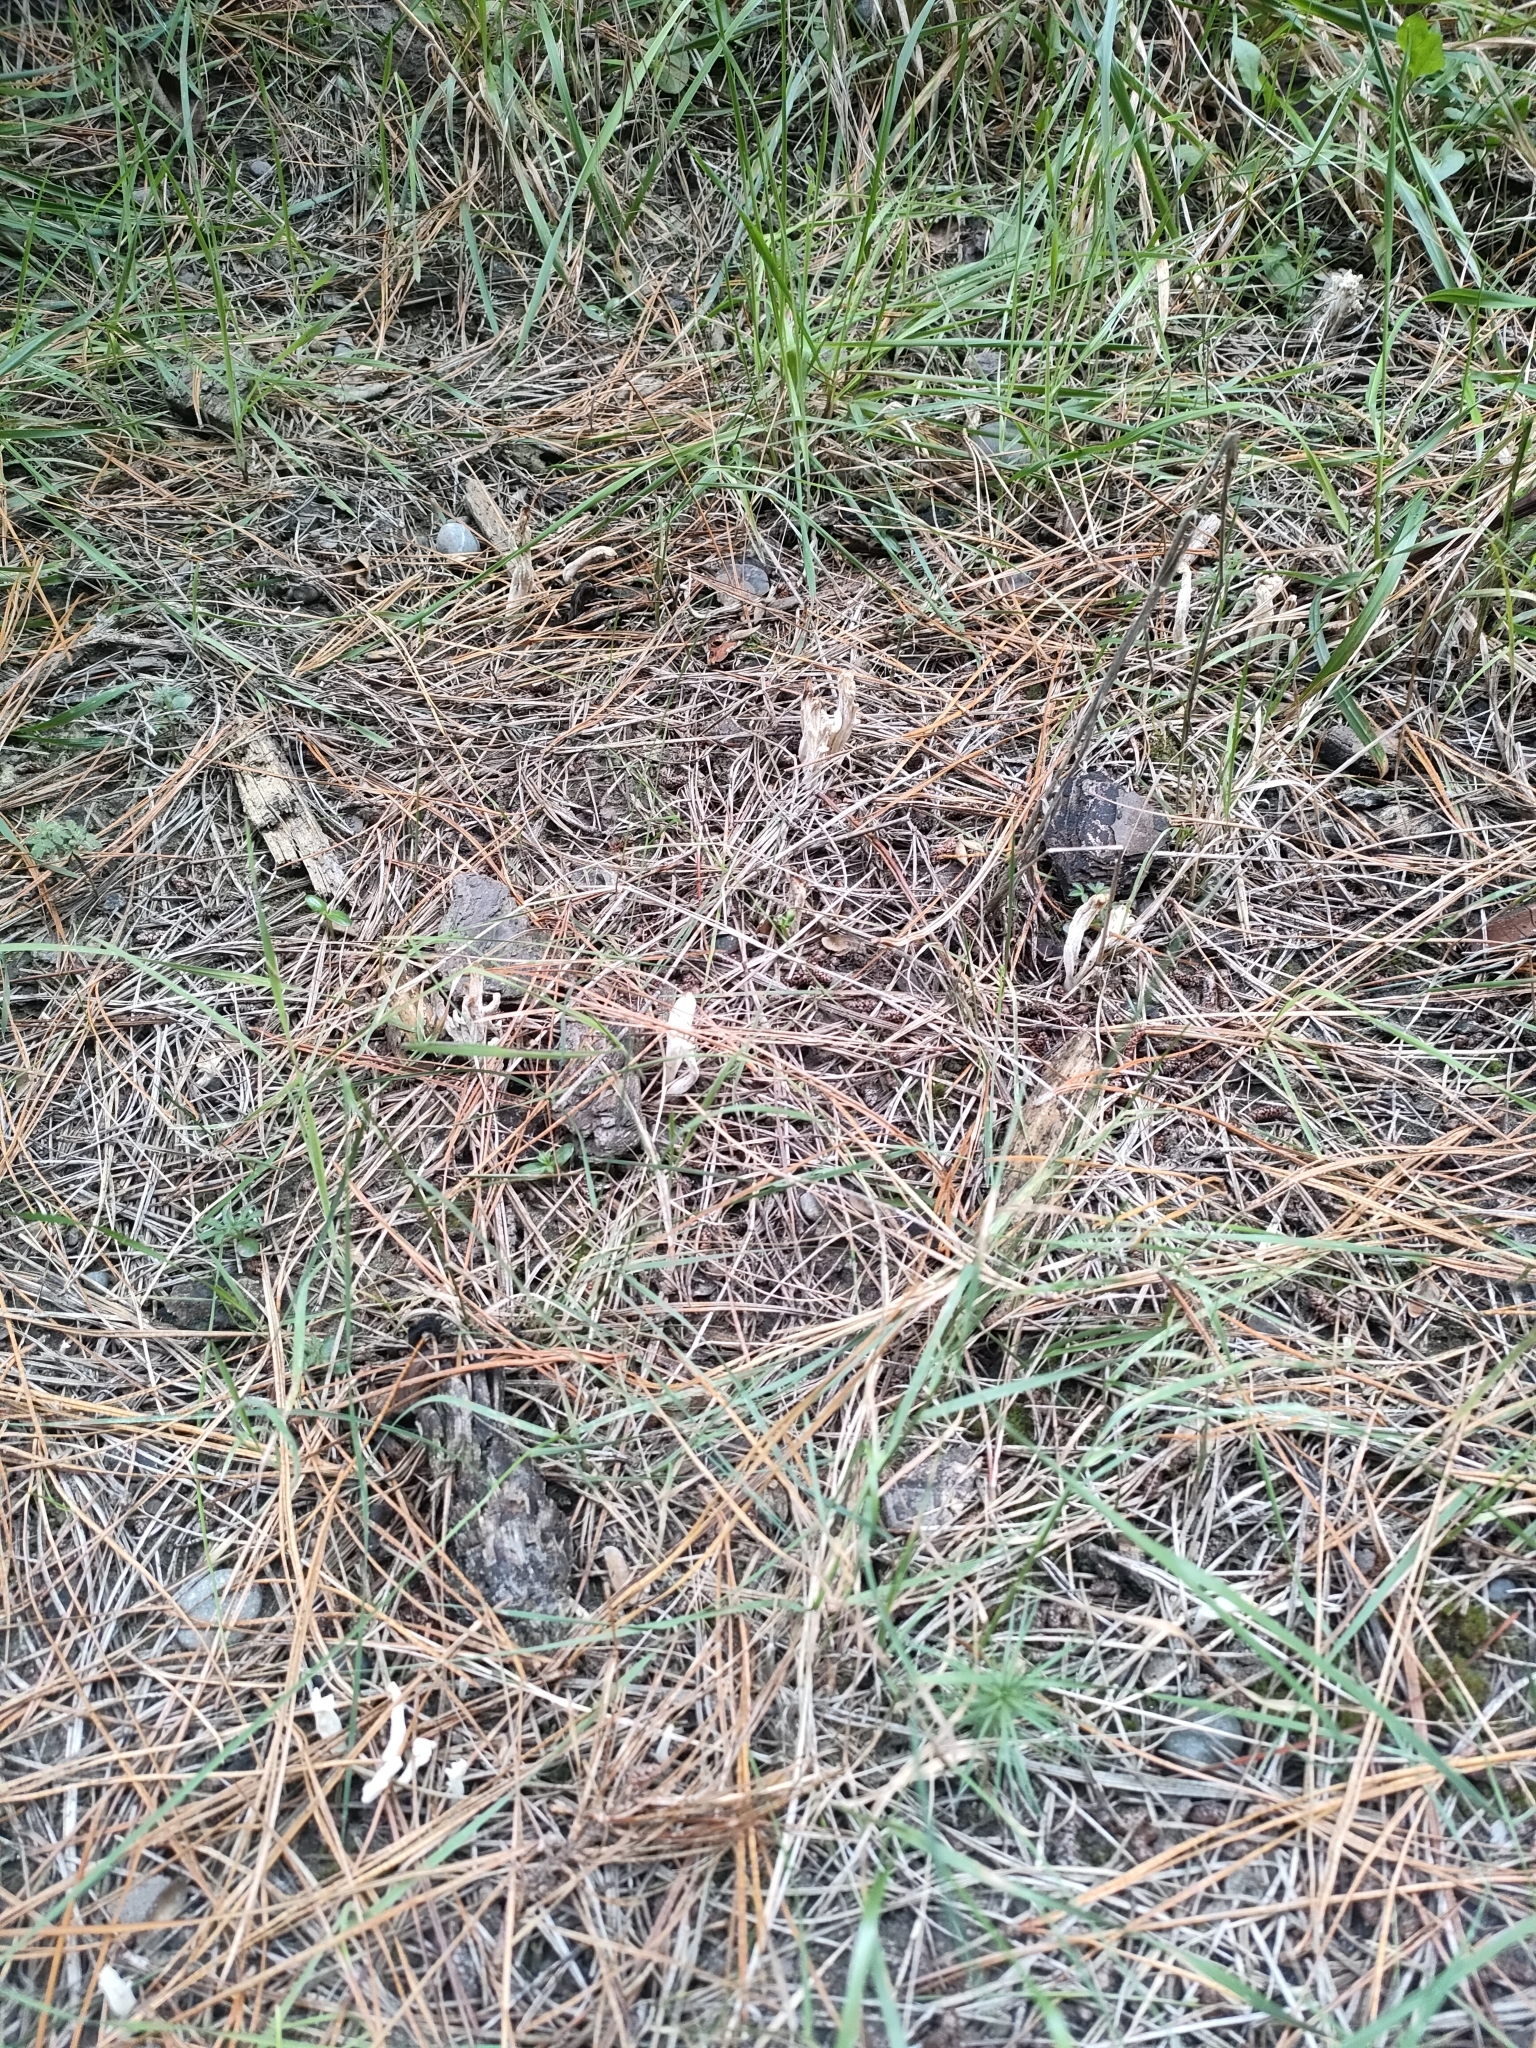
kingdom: Fungi
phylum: Basidiomycota
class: Agaricomycetes
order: Cantharellales
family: Hydnaceae
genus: Clavulina
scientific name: Clavulina rugosa
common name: Wrinkled club
